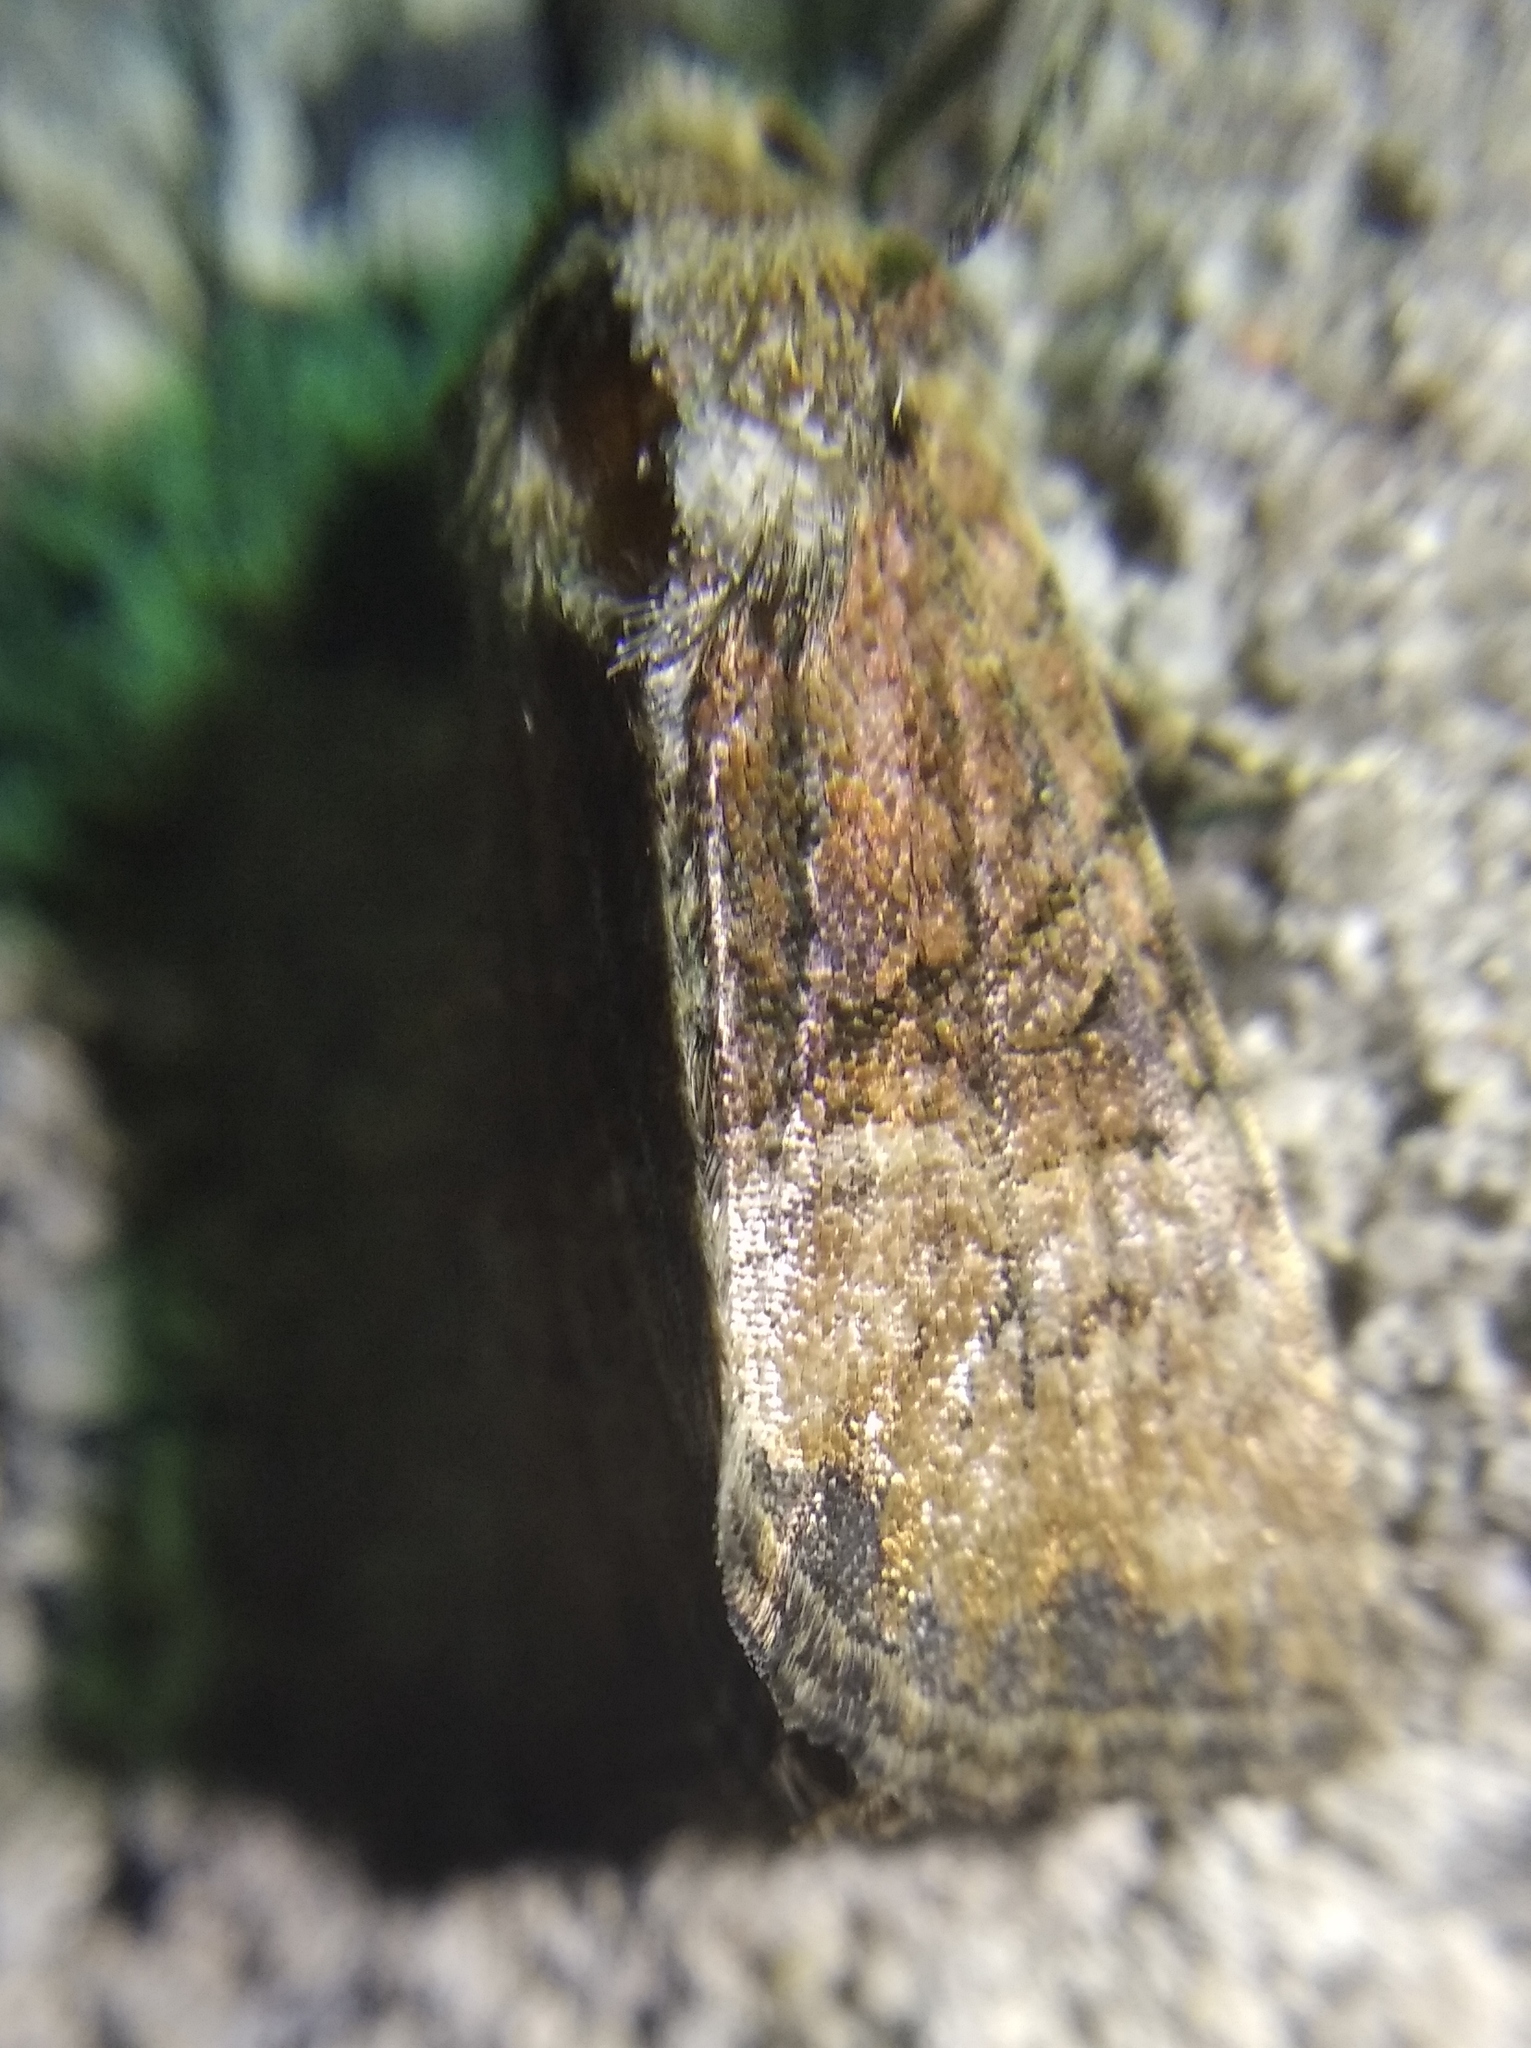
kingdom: Animalia
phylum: Arthropoda
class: Insecta
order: Lepidoptera
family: Noctuidae
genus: Mesoligia
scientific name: Mesoligia furuncula
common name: Cloaked minor
